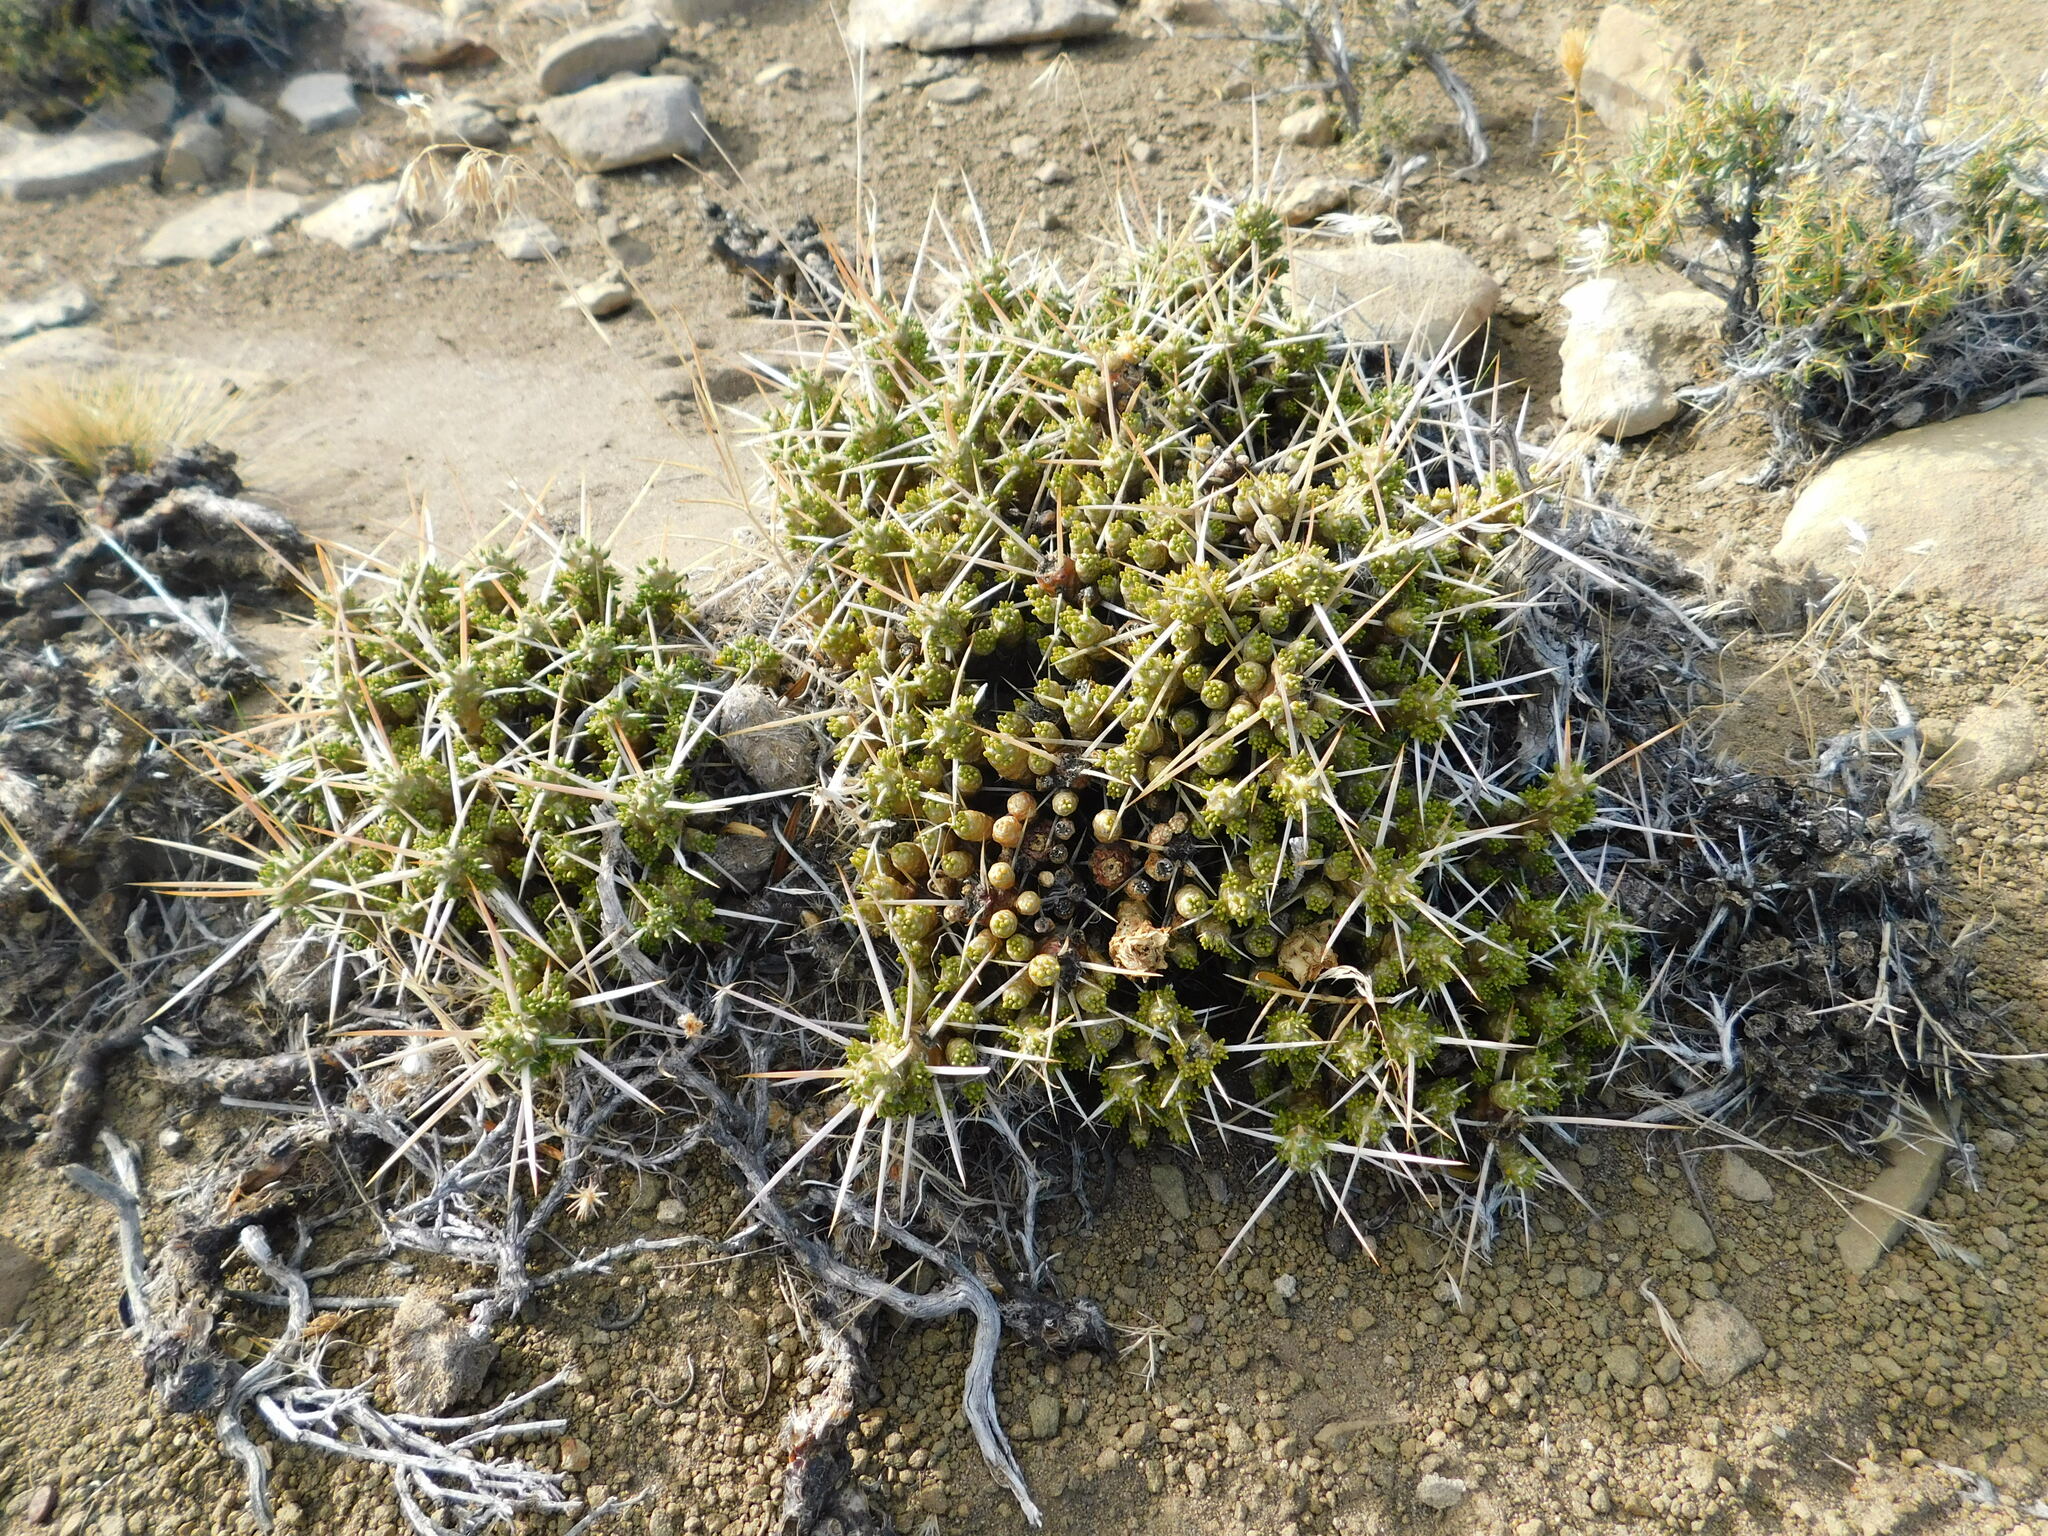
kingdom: Plantae
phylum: Tracheophyta
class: Magnoliopsida
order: Caryophyllales
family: Cactaceae
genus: Maihuenia
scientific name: Maihuenia patagonica
